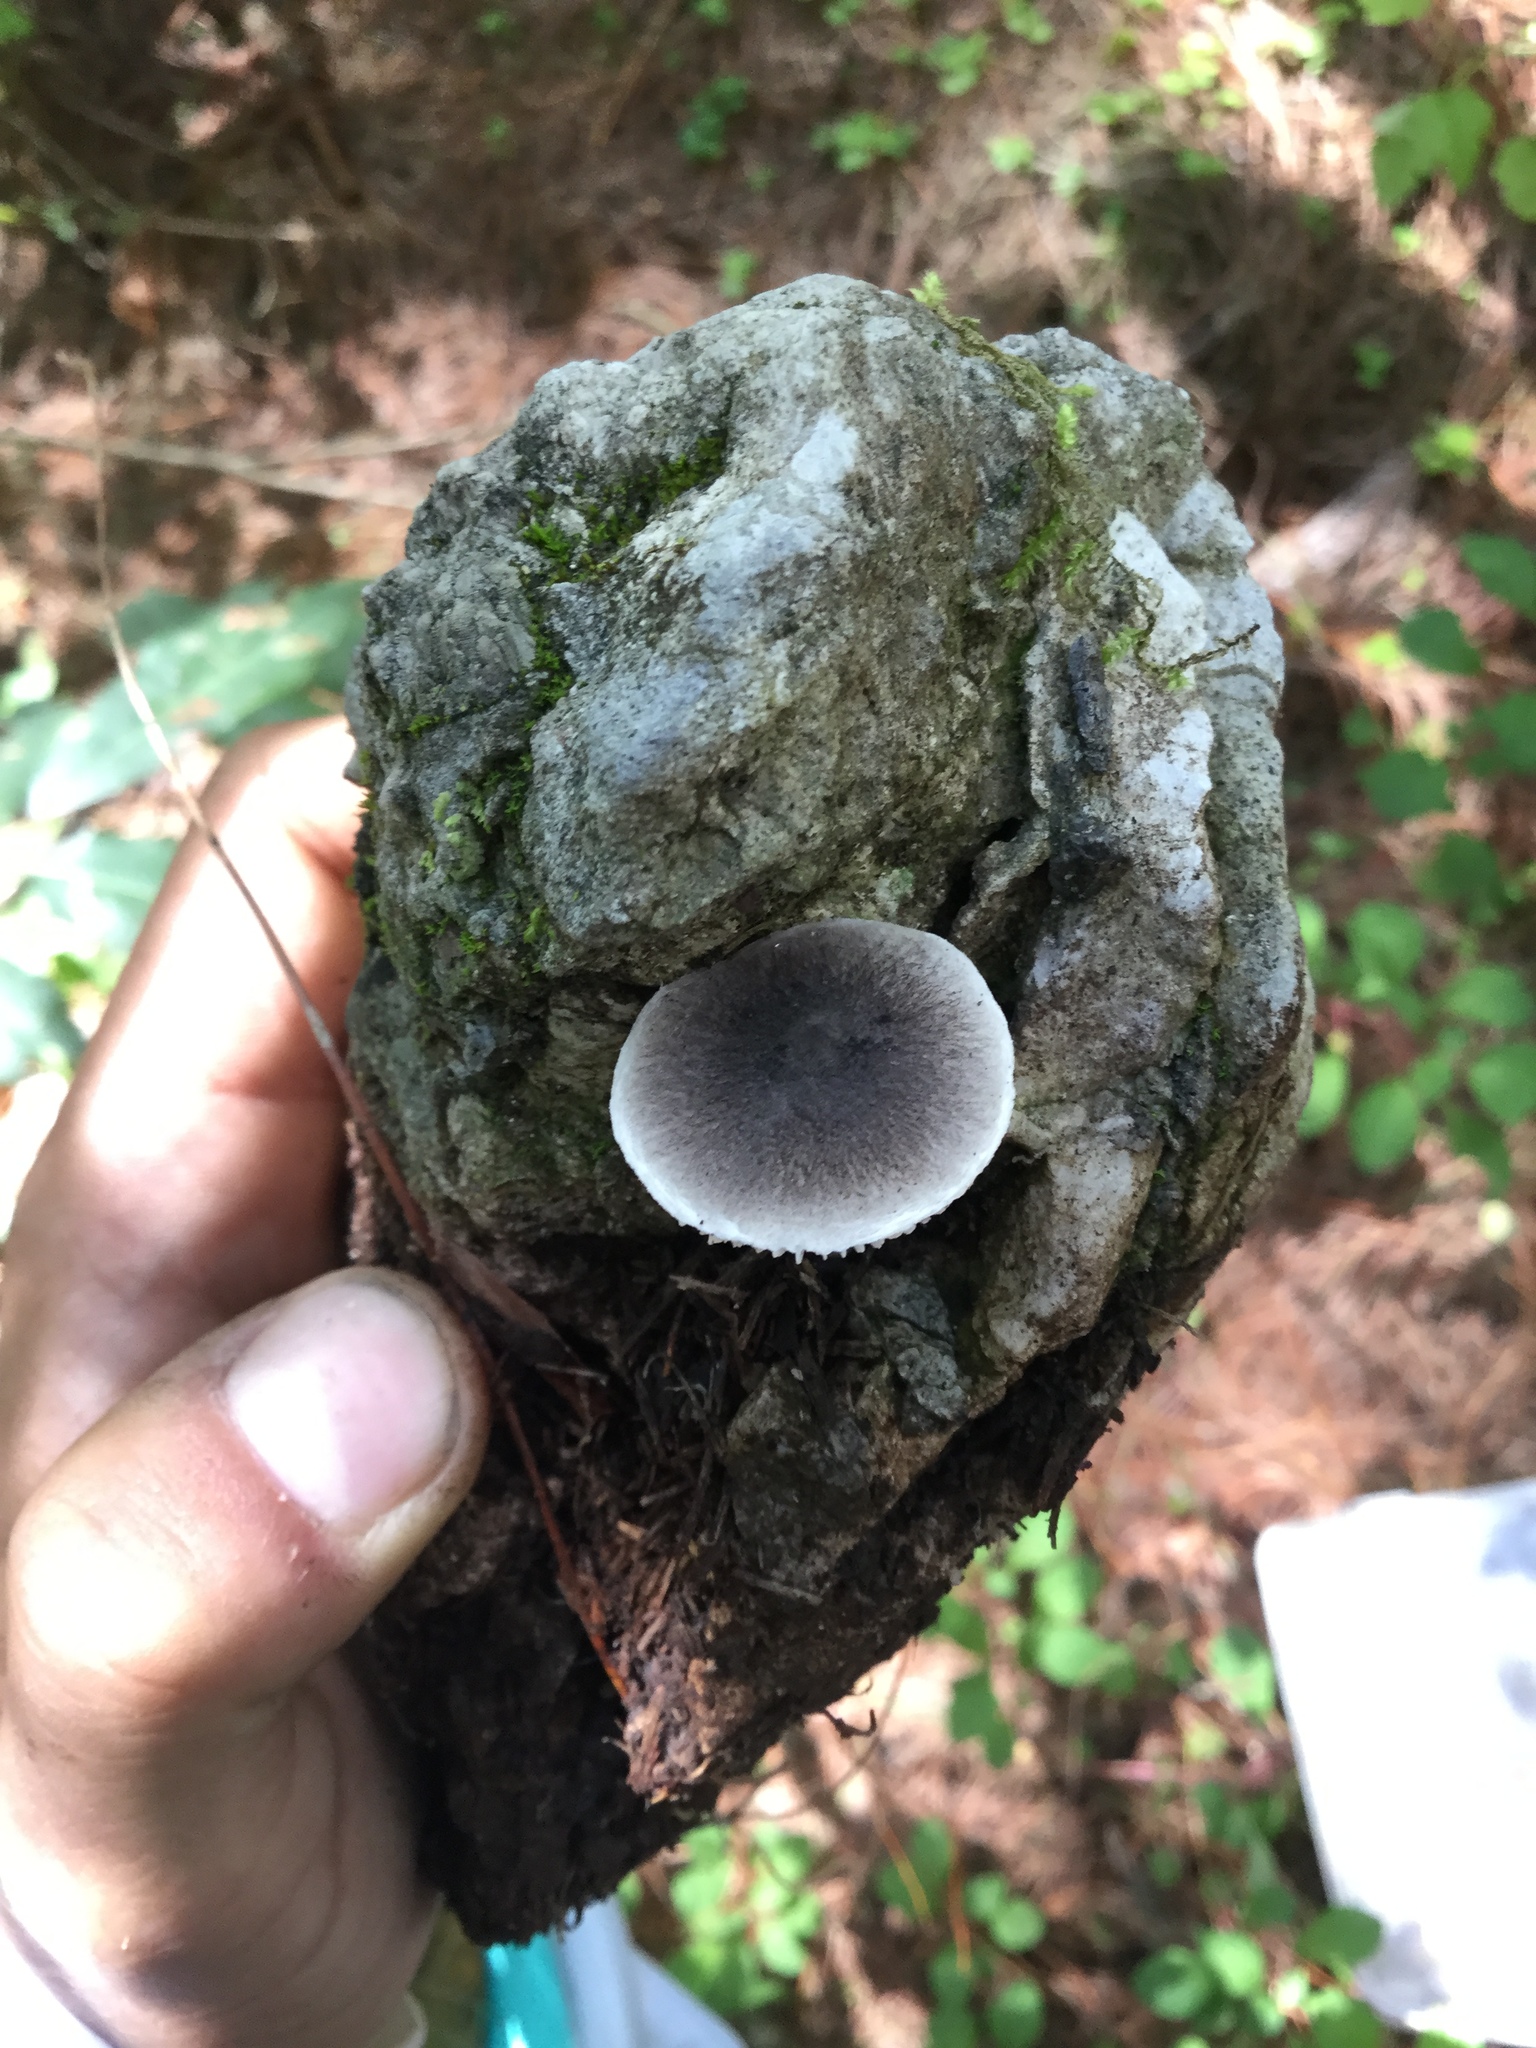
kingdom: Fungi
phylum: Basidiomycota
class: Agaricomycetes
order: Agaricales
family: Tricholomataceae
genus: Tricholoma
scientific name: Tricholoma terreum
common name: Grey knight
